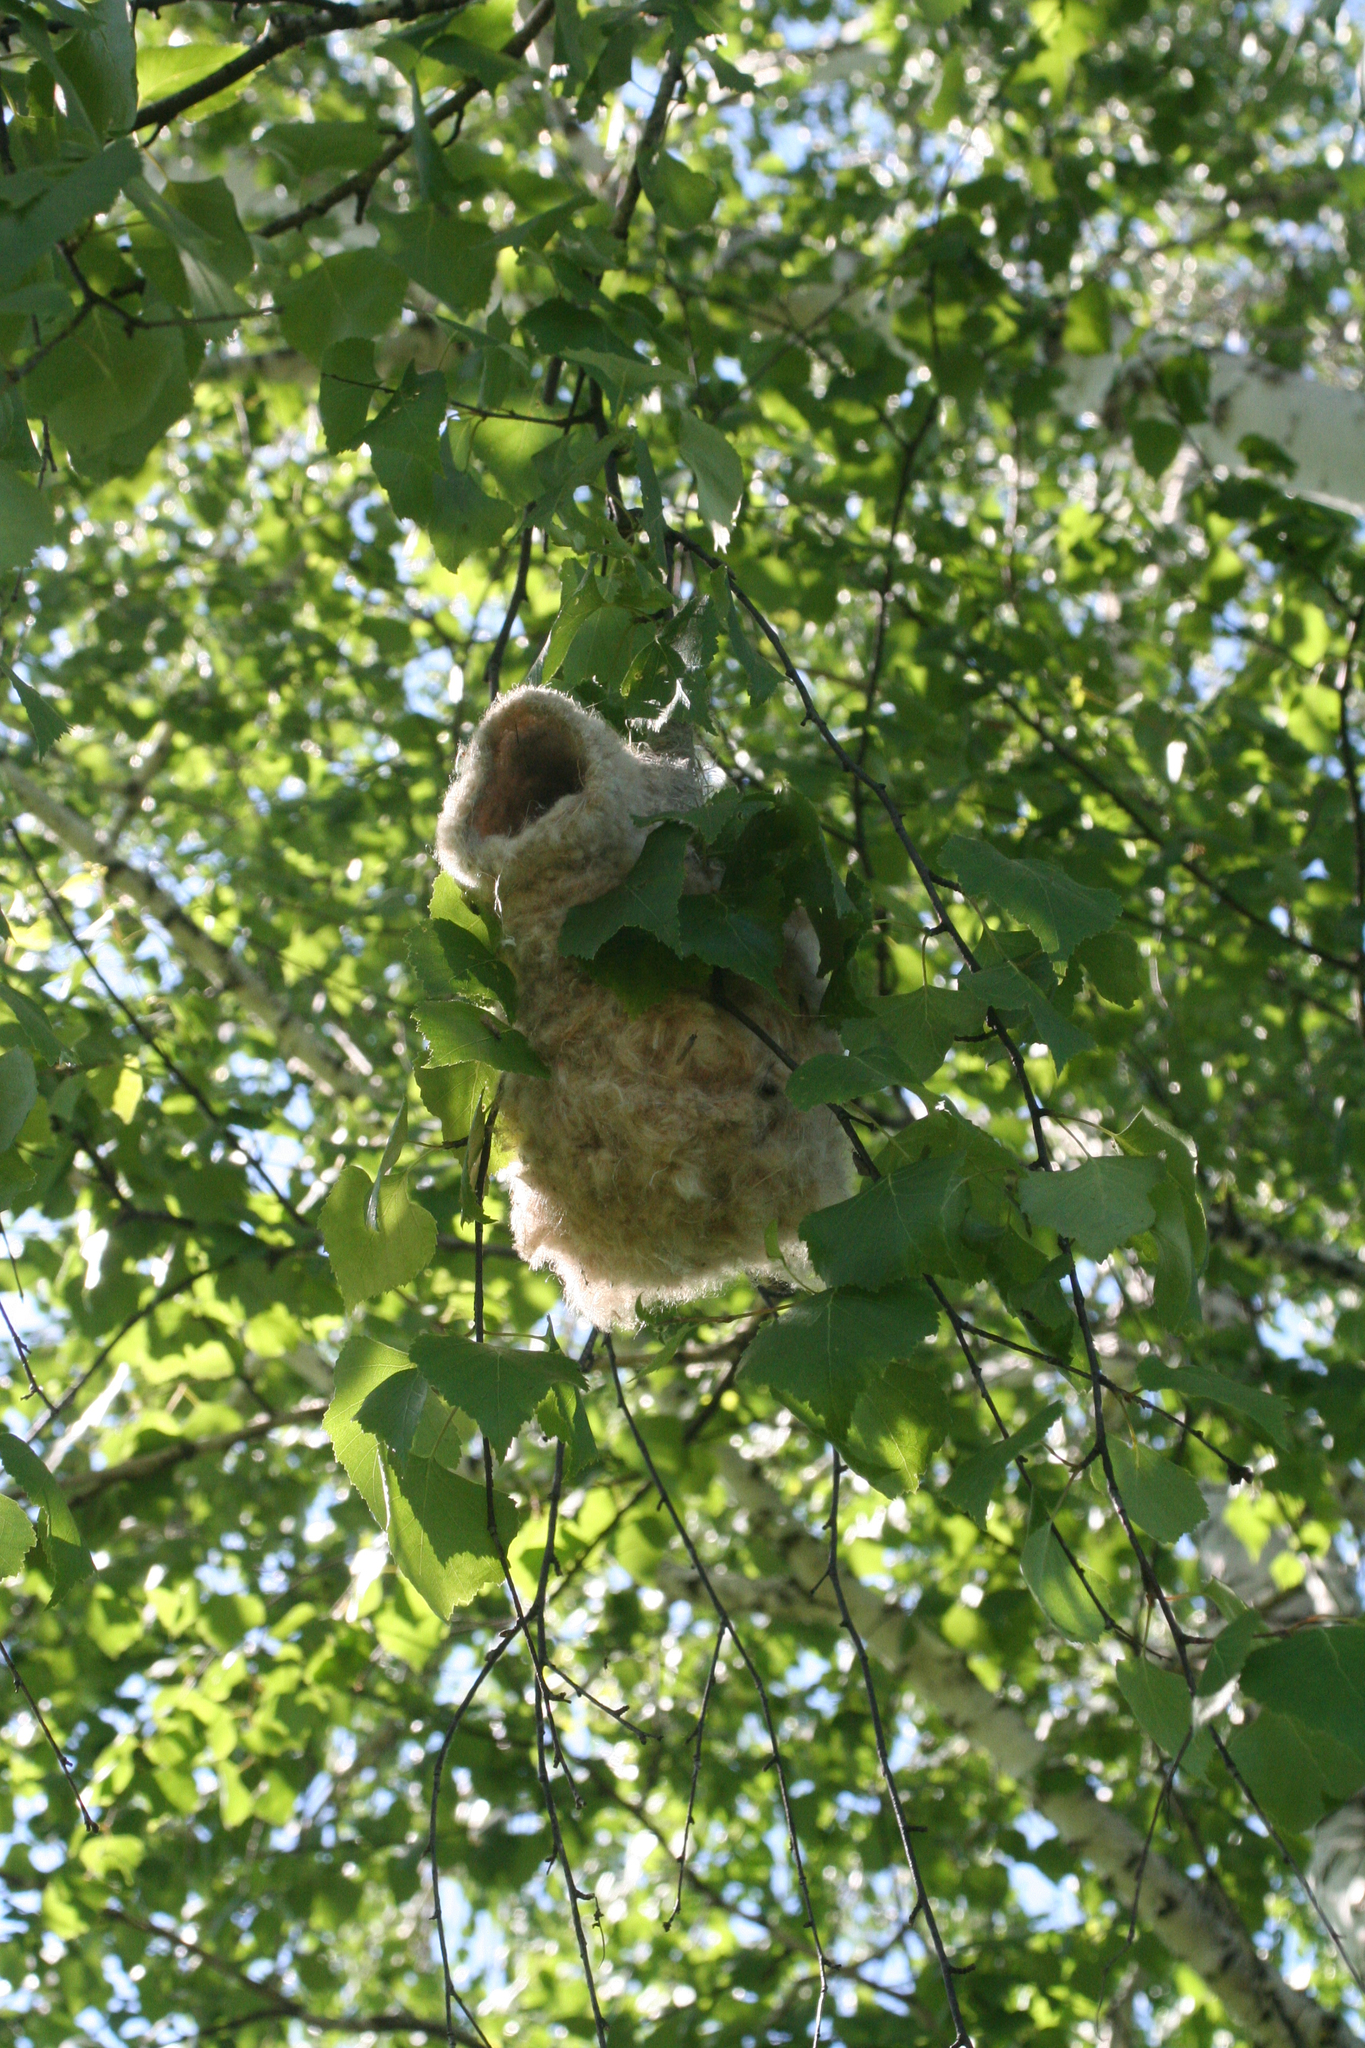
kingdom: Animalia
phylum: Chordata
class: Aves
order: Passeriformes
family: Remizidae
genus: Remiz
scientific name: Remiz pendulinus
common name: Eurasian penduline tit
